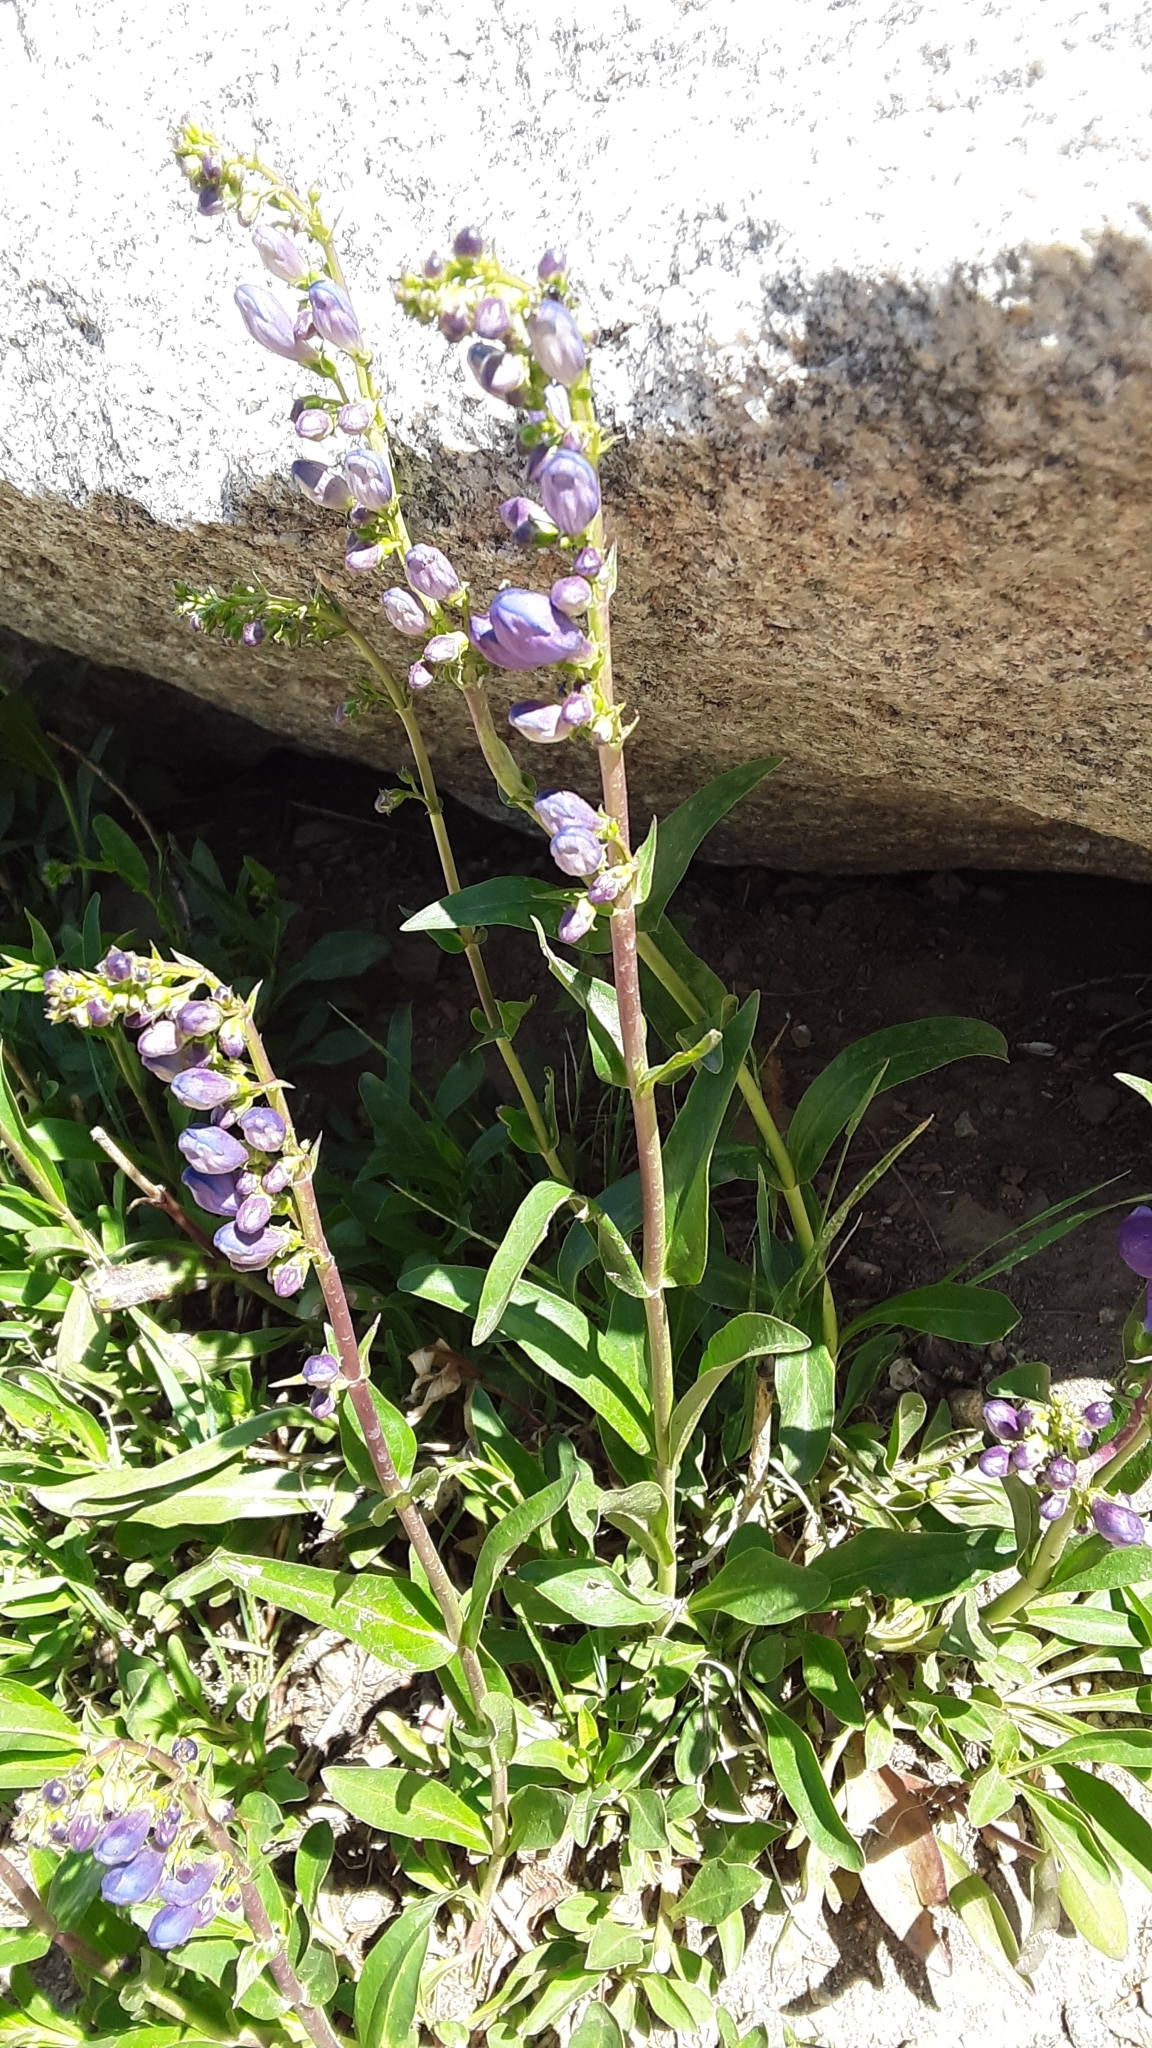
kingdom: Plantae
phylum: Tracheophyta
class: Magnoliopsida
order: Lamiales
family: Plantaginaceae
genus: Penstemon
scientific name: Penstemon strictus
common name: Rocky mountain penstemon
